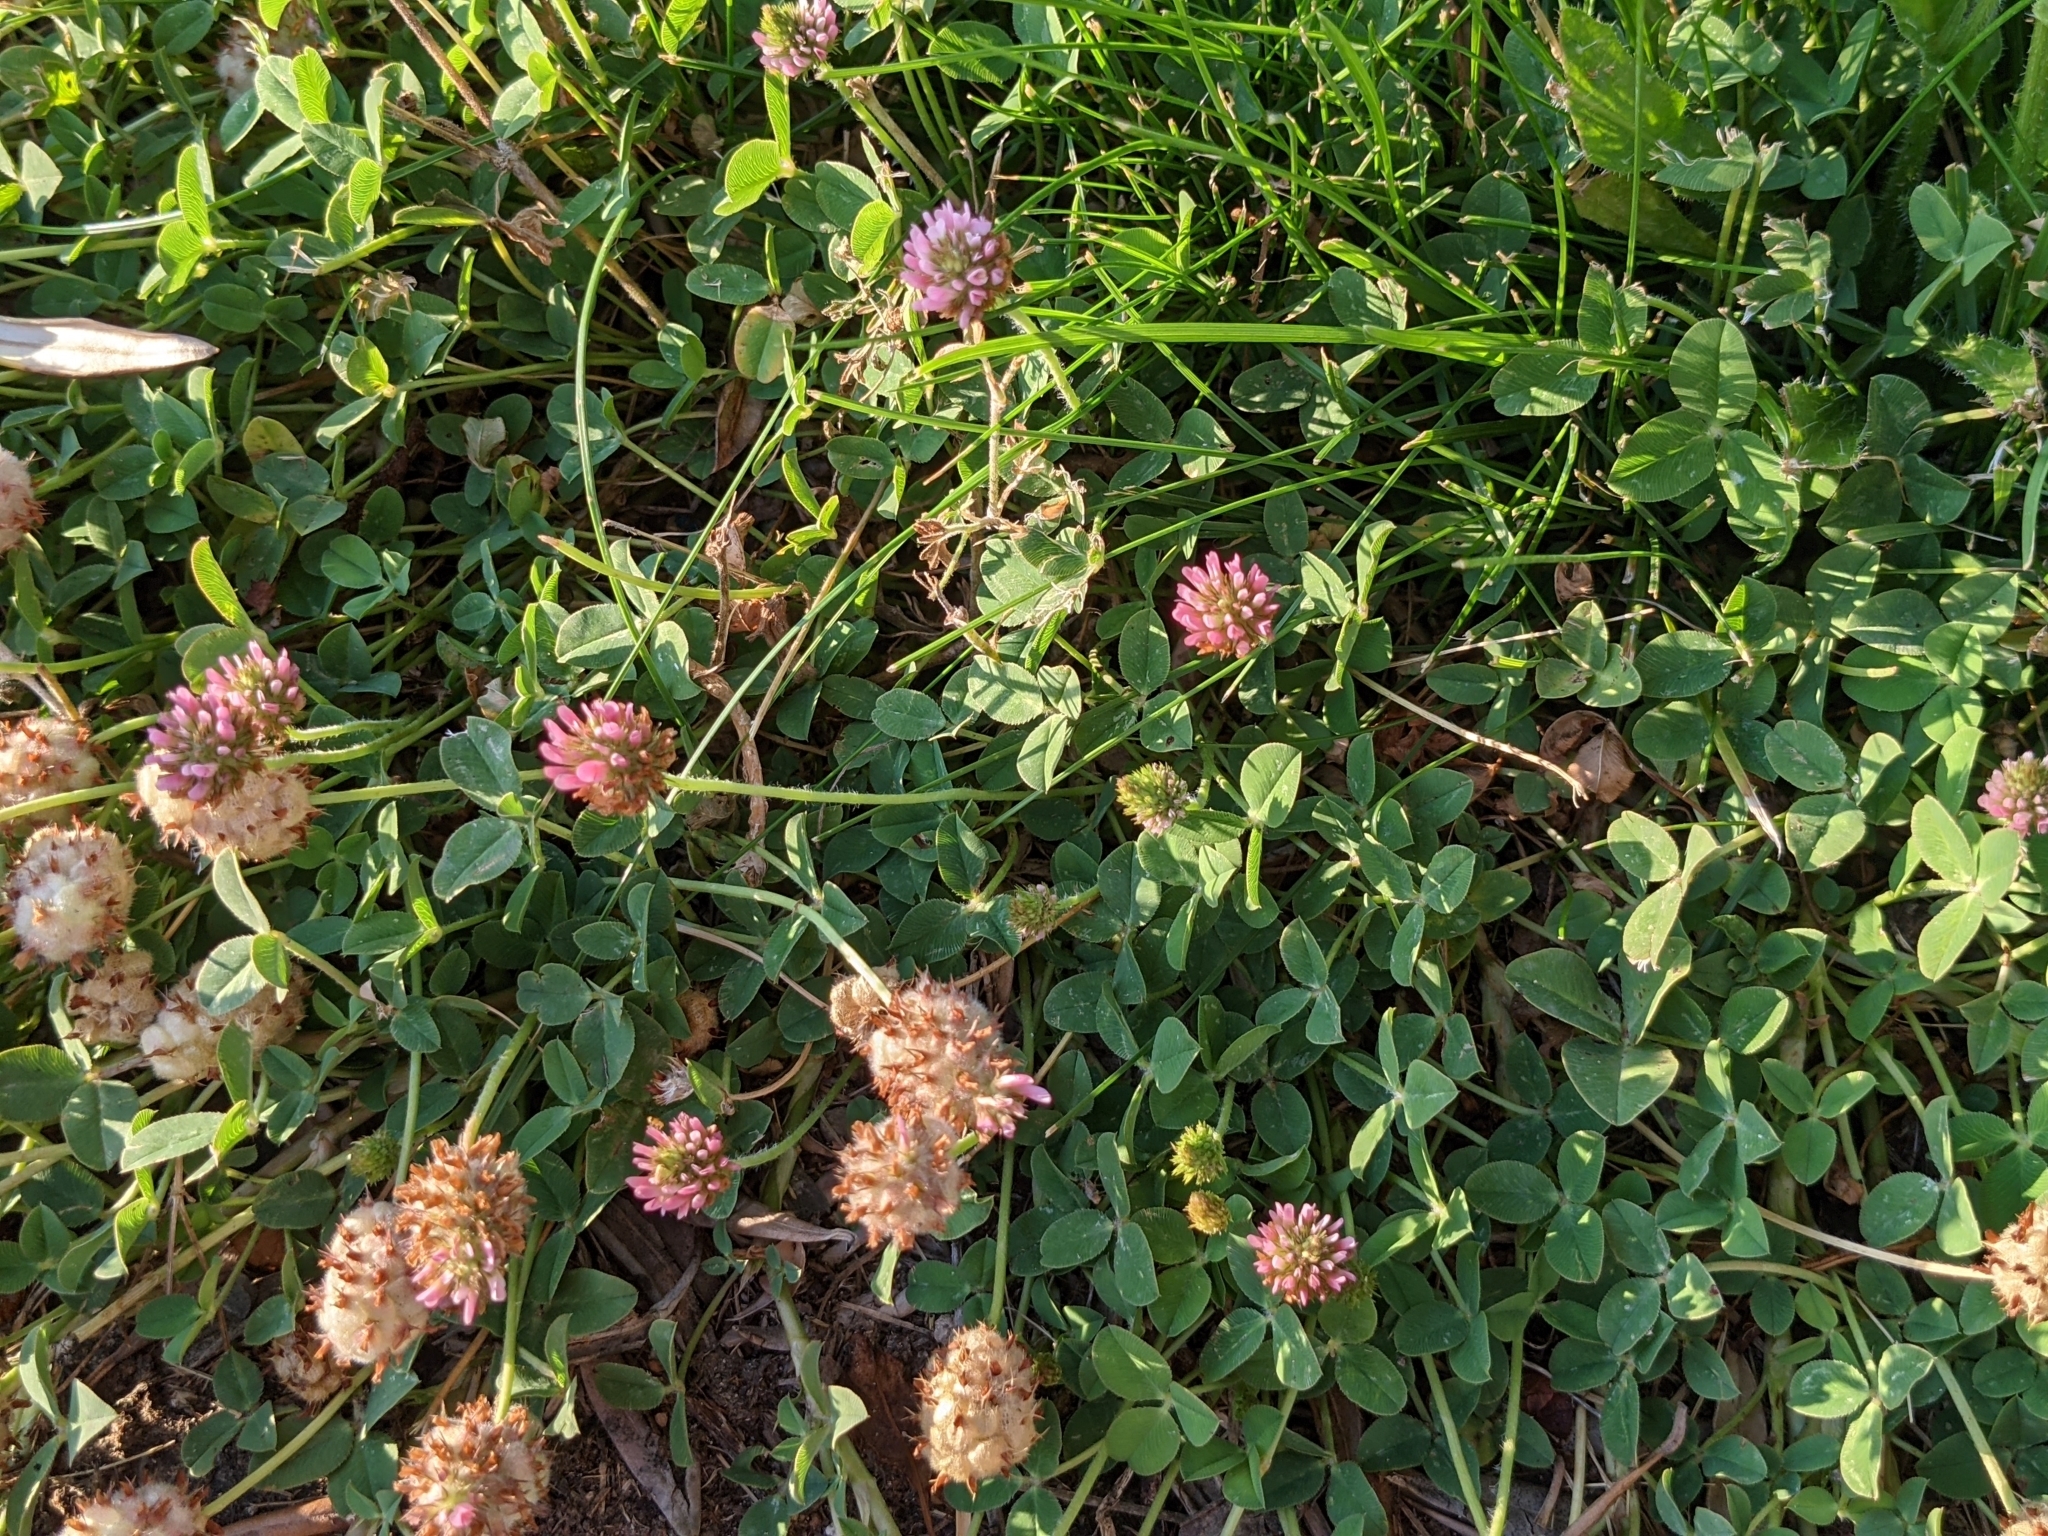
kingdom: Plantae
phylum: Tracheophyta
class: Magnoliopsida
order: Fabales
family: Fabaceae
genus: Trifolium
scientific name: Trifolium fragiferum
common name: Strawberry clover
